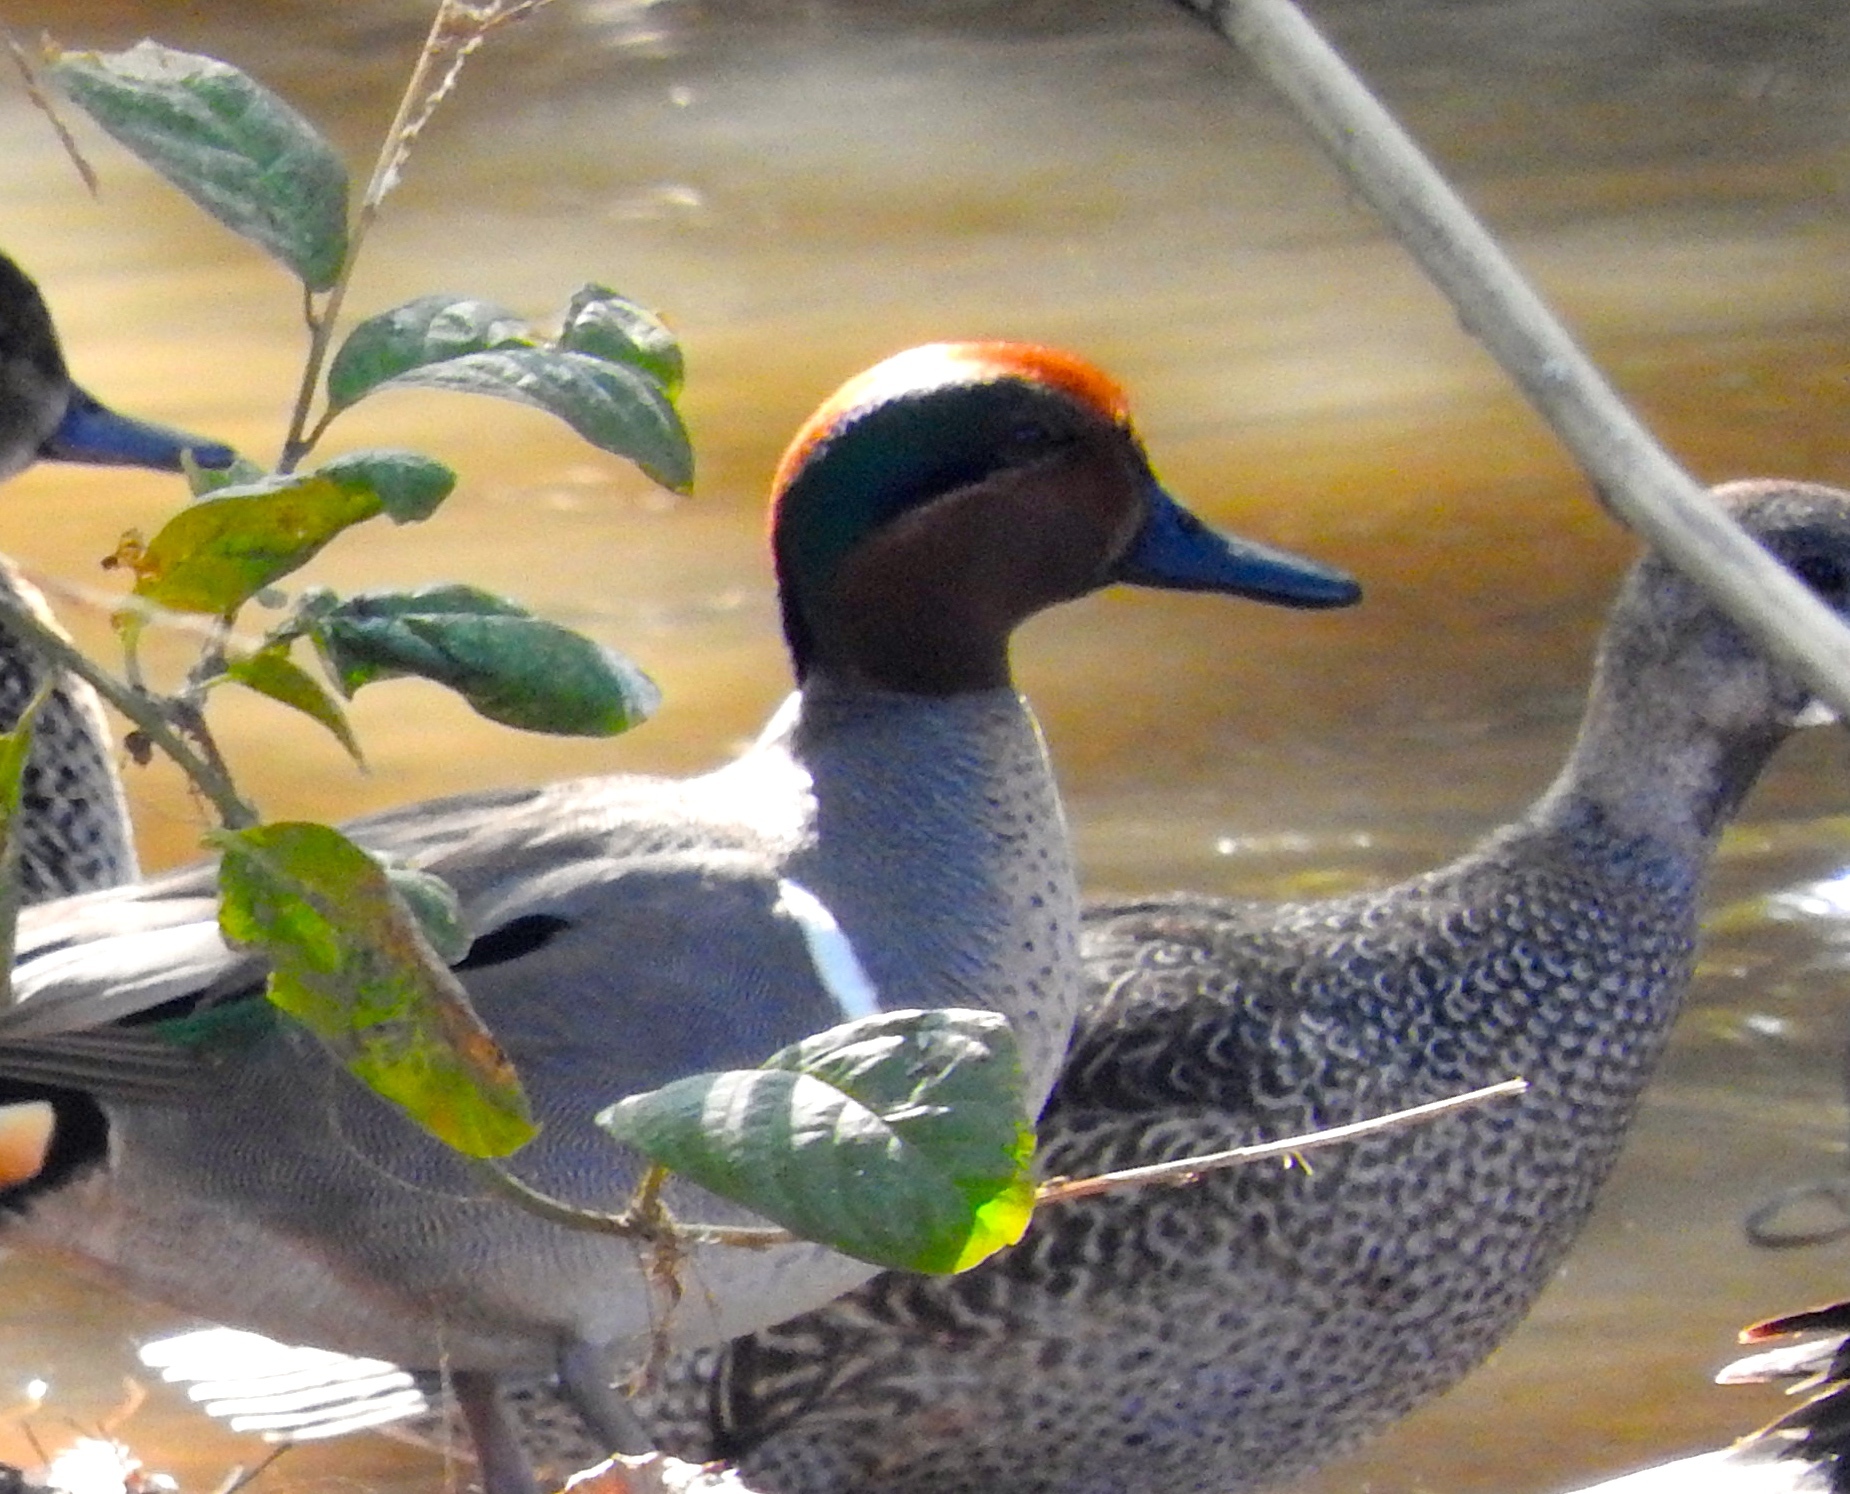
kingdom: Animalia
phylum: Chordata
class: Aves
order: Anseriformes
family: Anatidae
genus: Anas
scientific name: Anas crecca
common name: Eurasian teal
